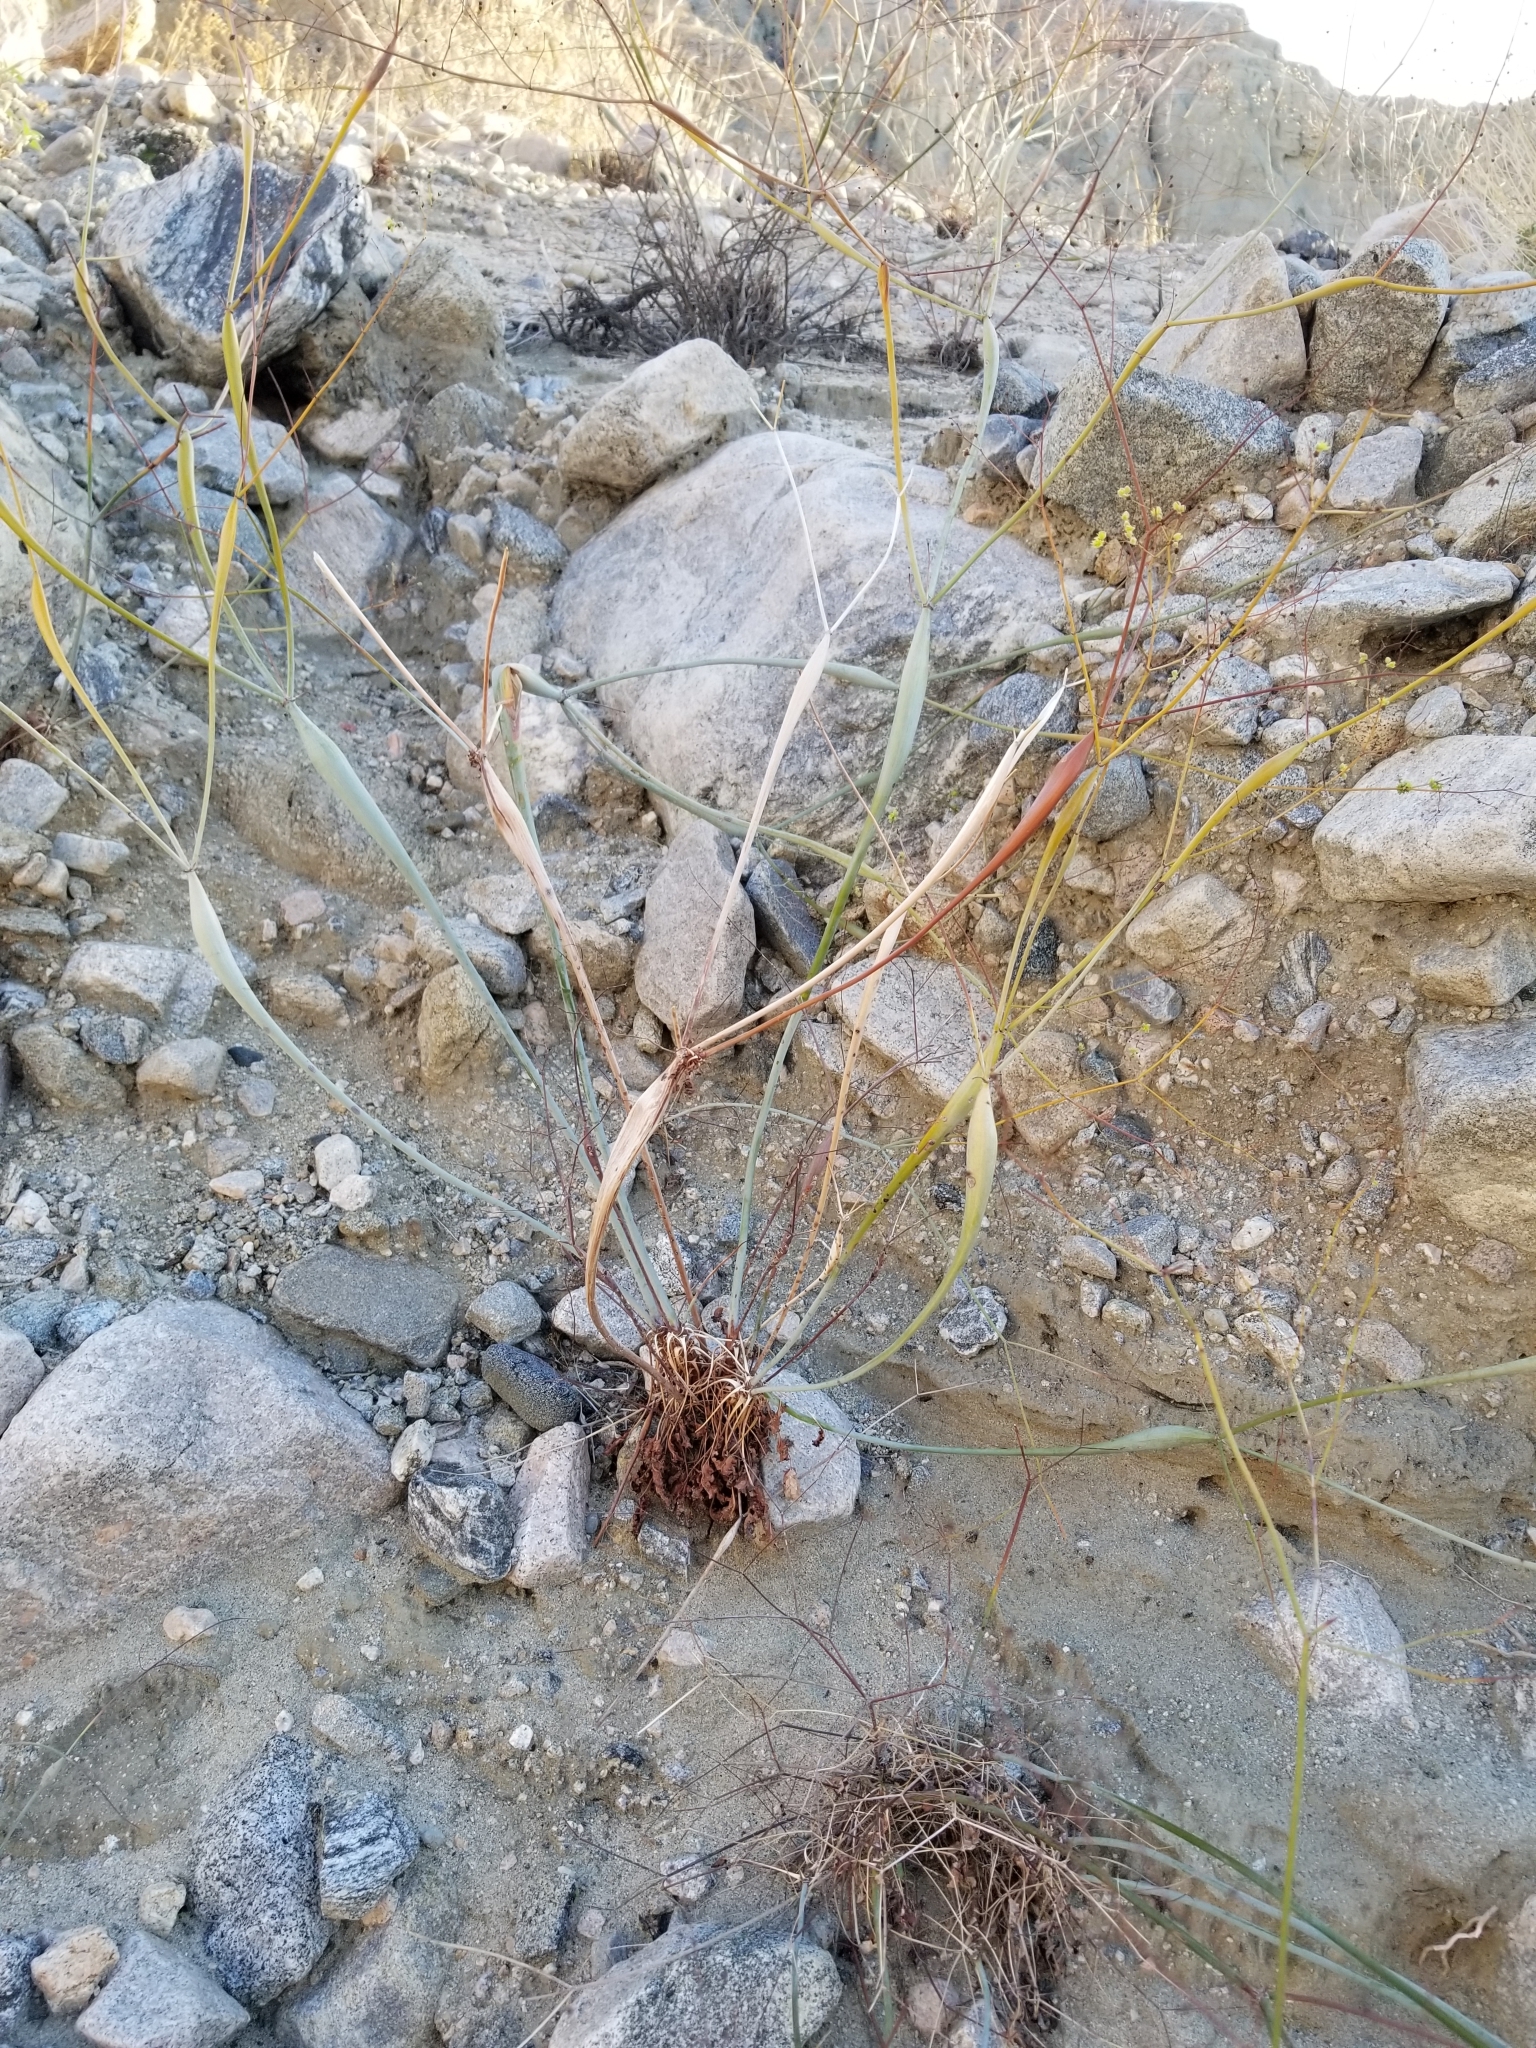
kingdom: Plantae
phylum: Tracheophyta
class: Magnoliopsida
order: Caryophyllales
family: Polygonaceae
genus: Eriogonum
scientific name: Eriogonum inflatum
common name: Desert trumpet
